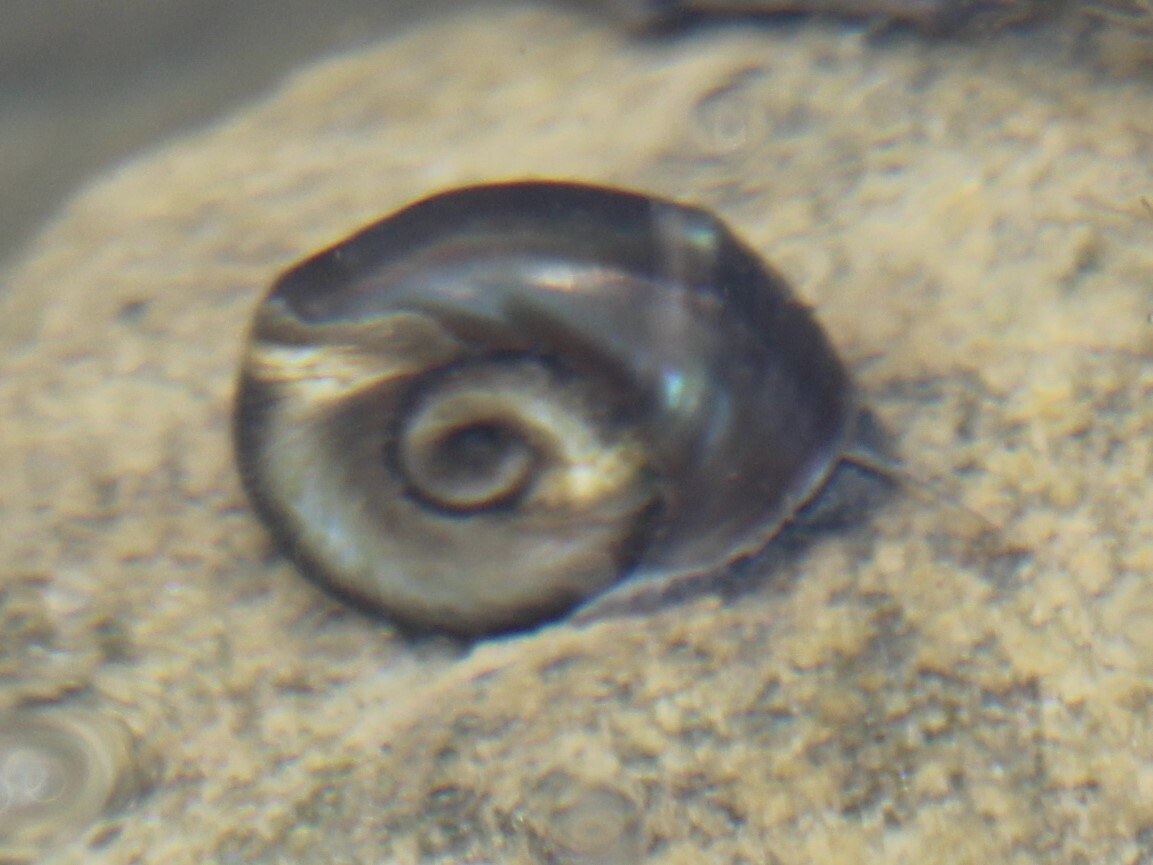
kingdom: Animalia
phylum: Mollusca
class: Gastropoda
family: Planorbidae
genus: Planorbella
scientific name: Planorbella trivolvis
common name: Marsh rams-horn
